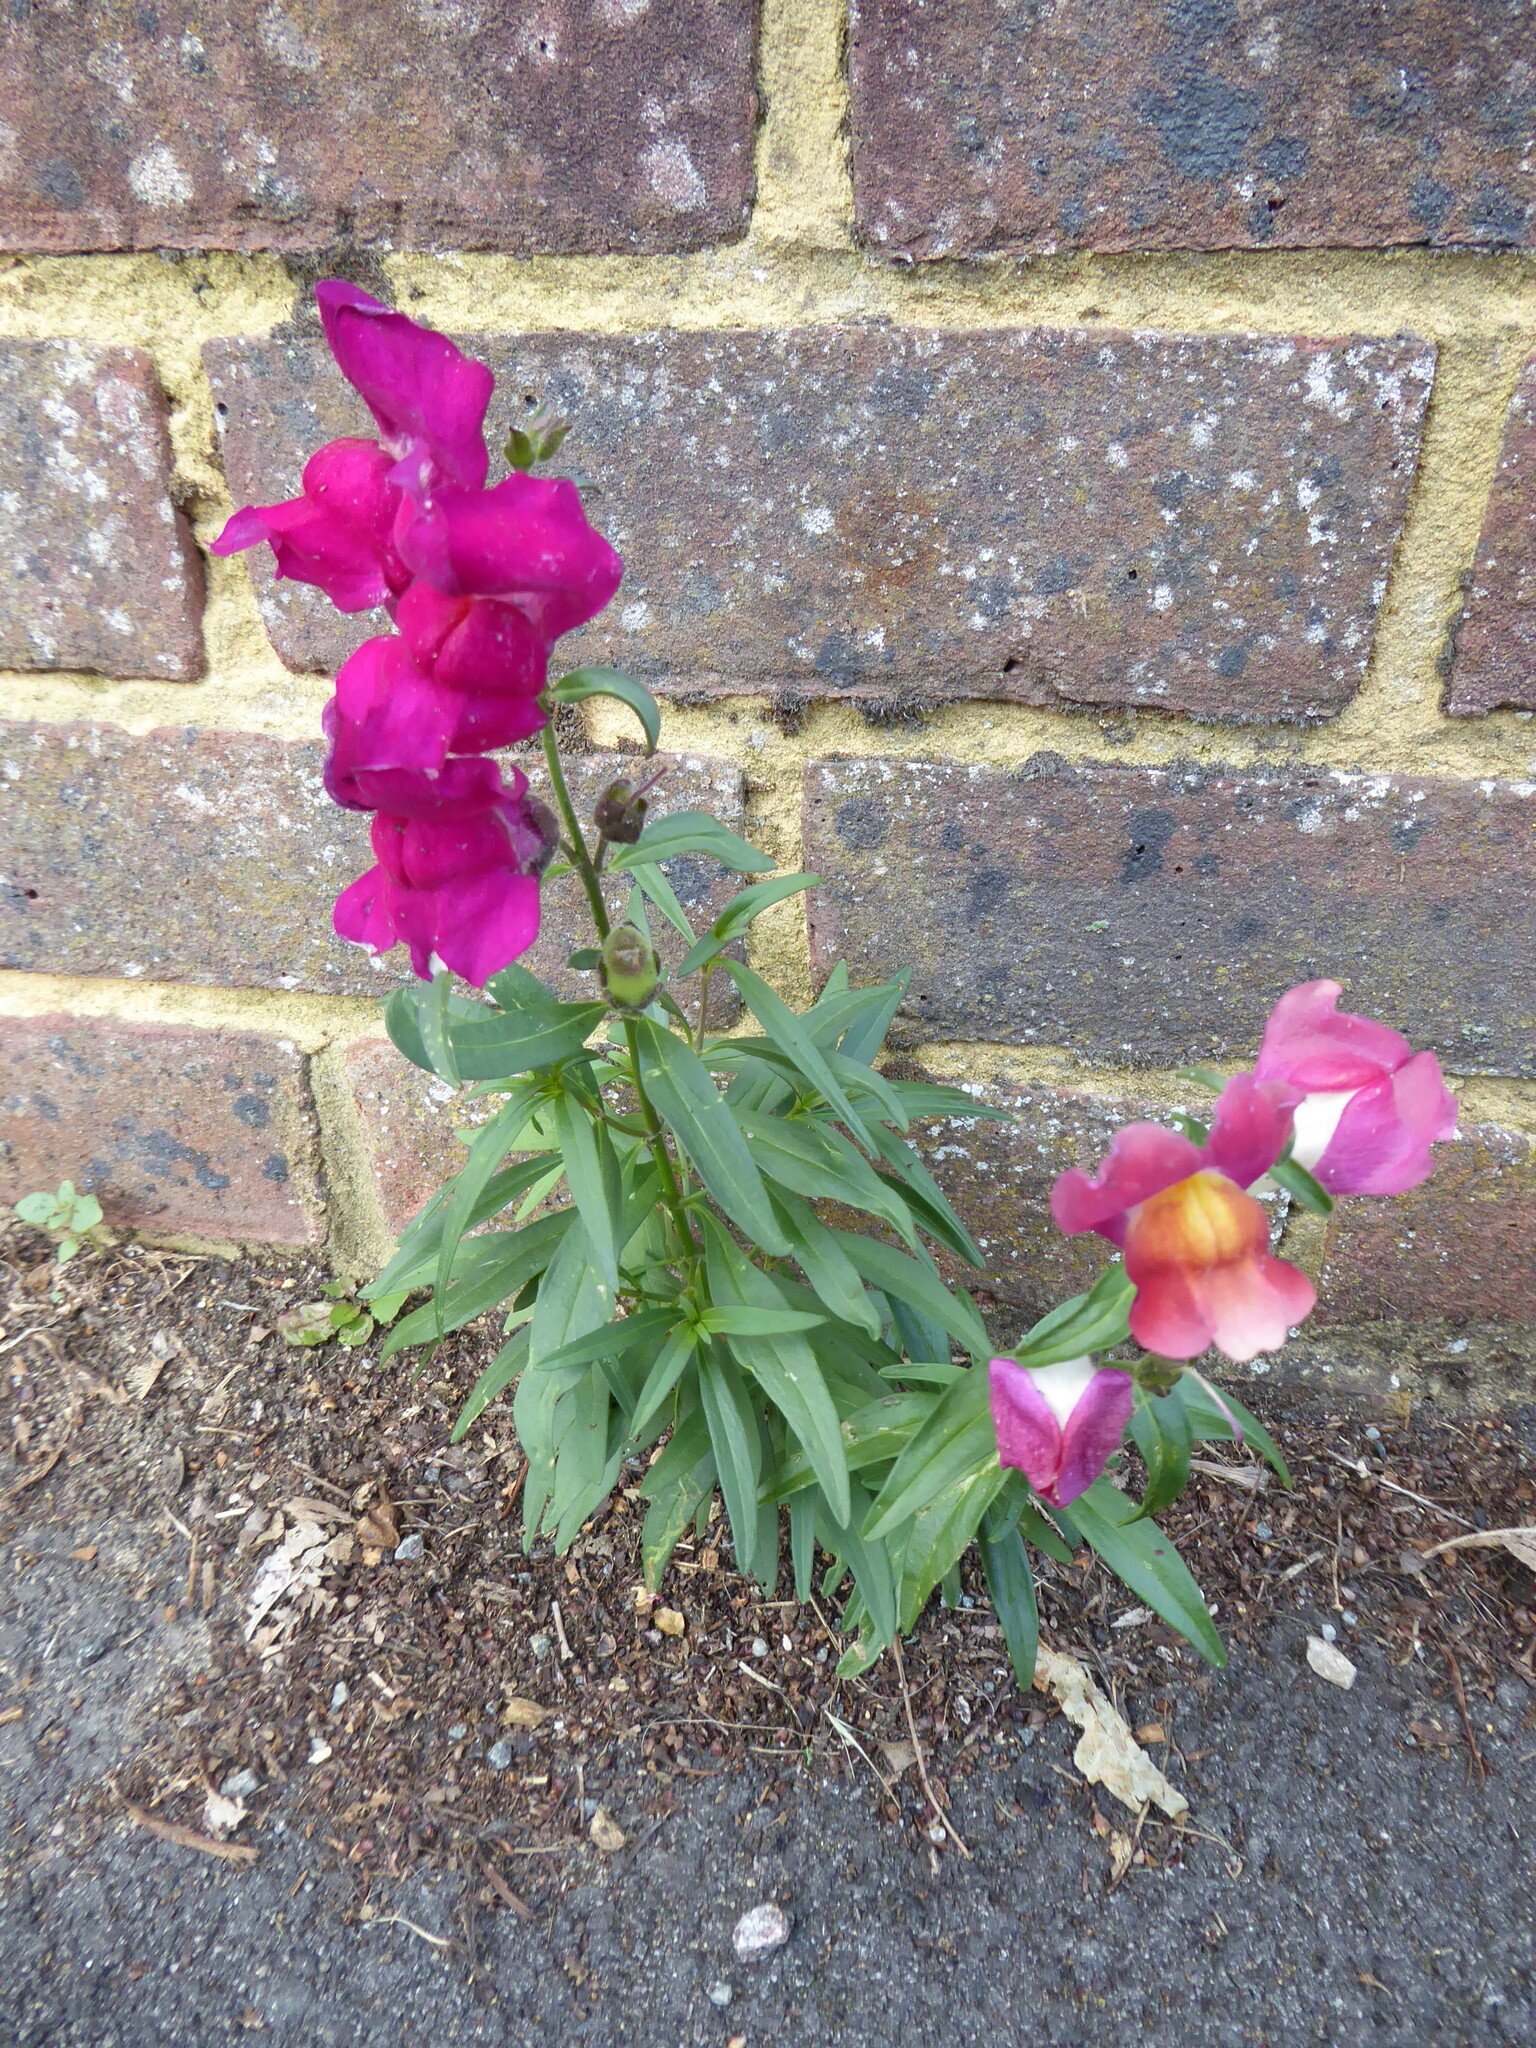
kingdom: Plantae
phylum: Tracheophyta
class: Magnoliopsida
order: Lamiales
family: Plantaginaceae
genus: Antirrhinum
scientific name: Antirrhinum majus
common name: Snapdragon
